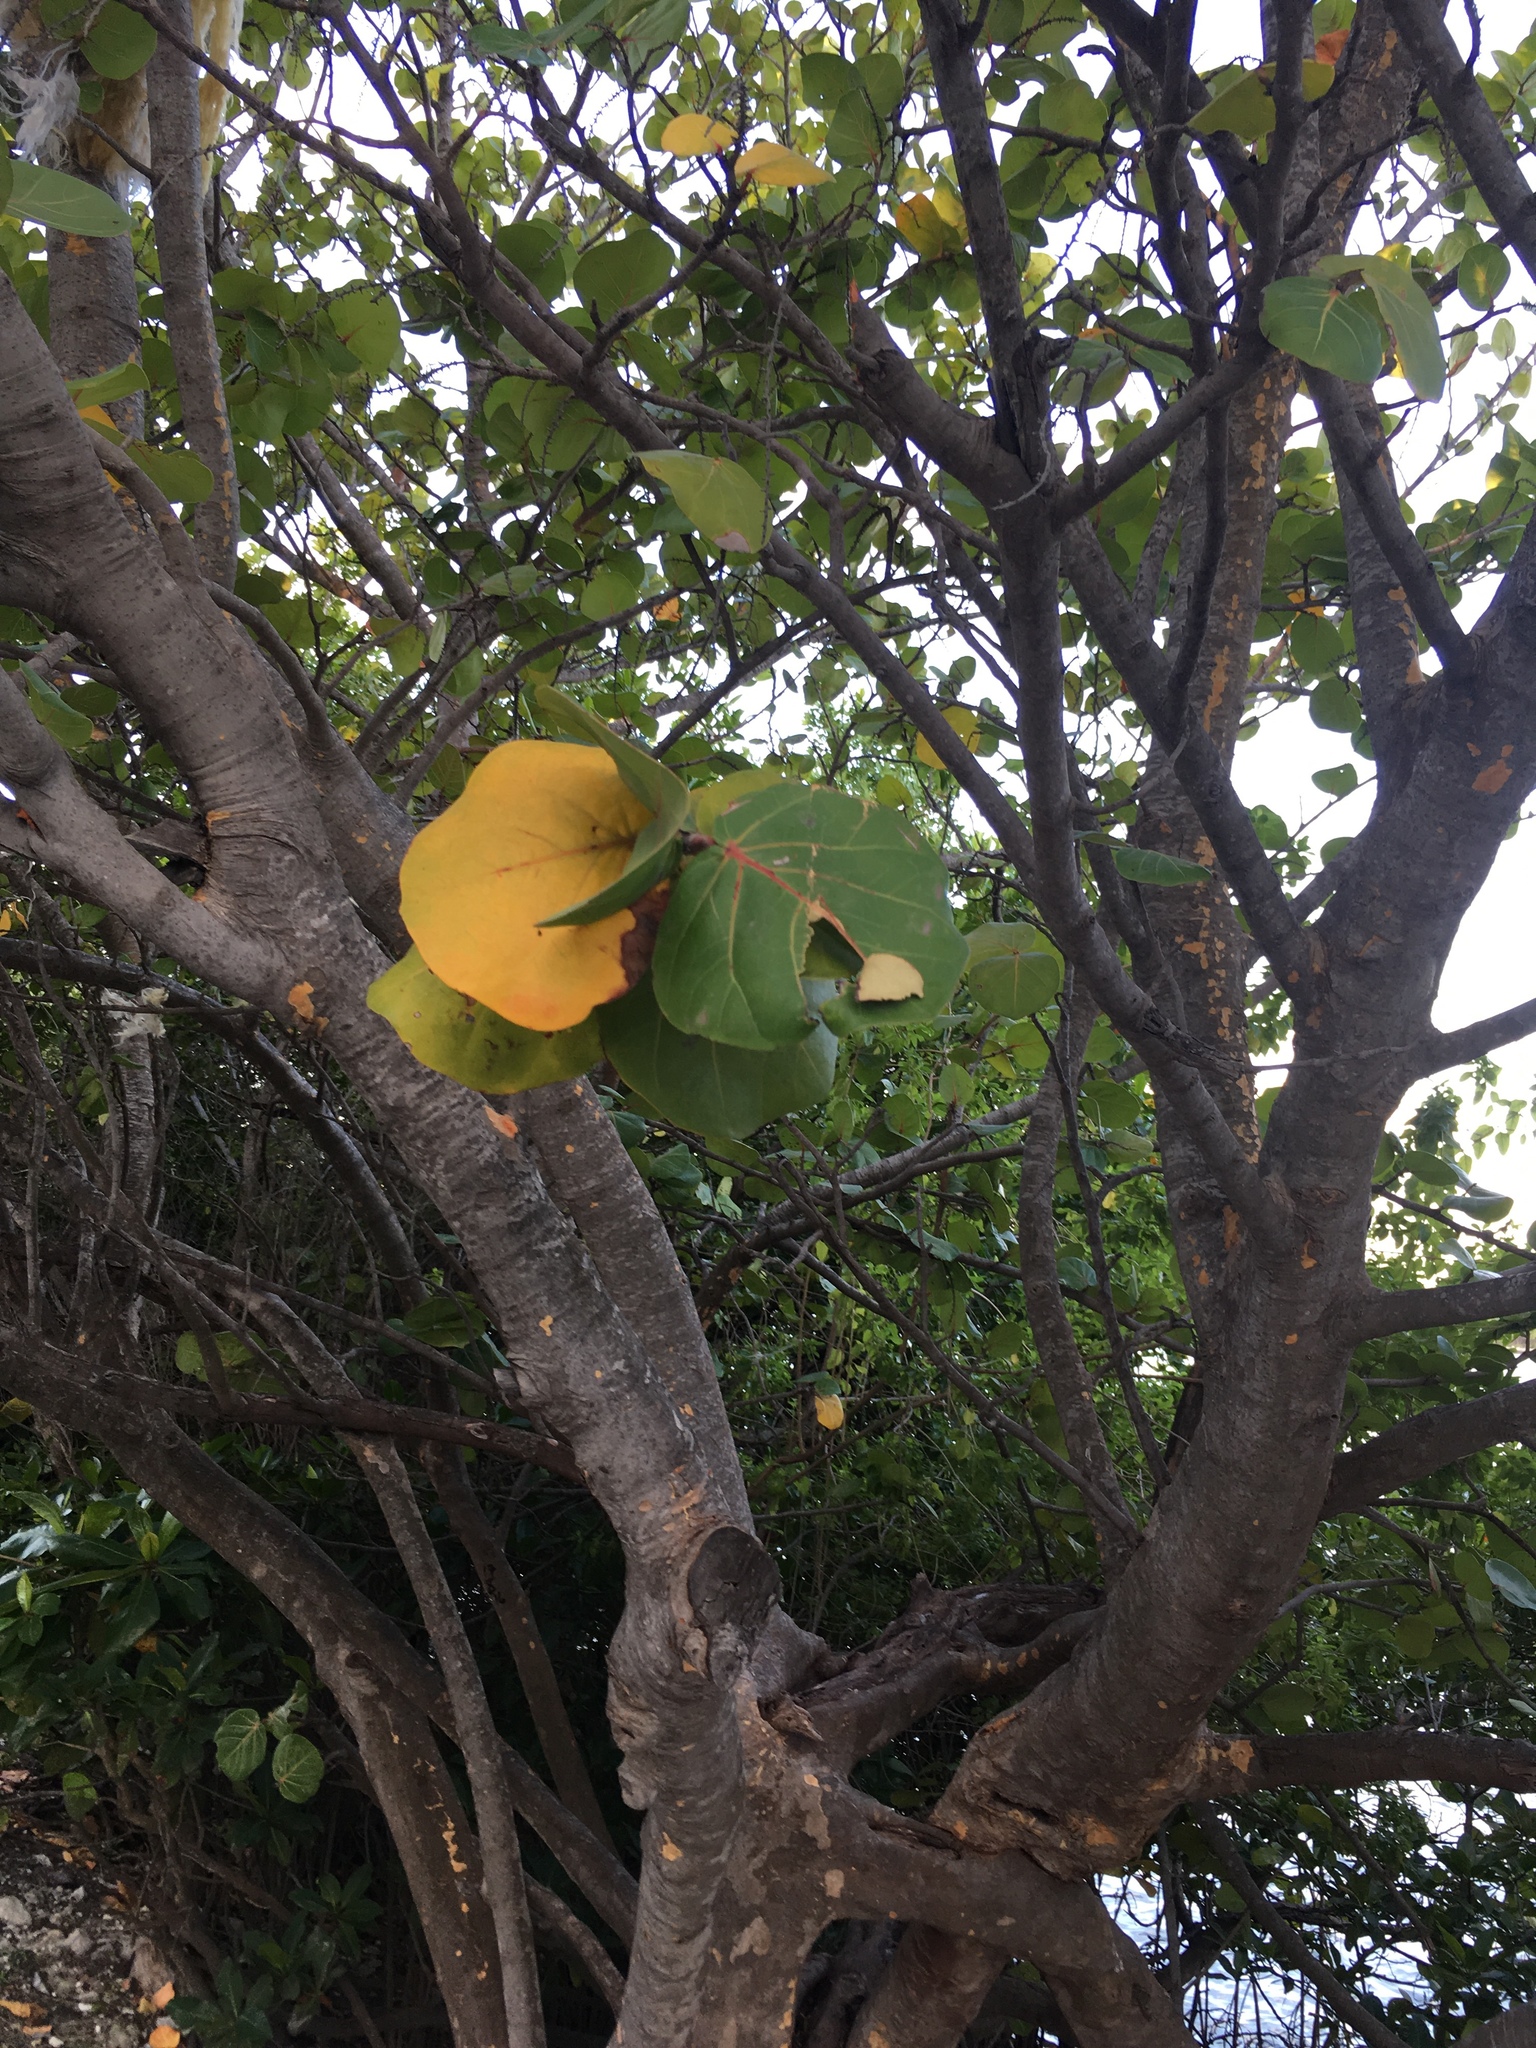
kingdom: Plantae
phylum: Tracheophyta
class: Magnoliopsida
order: Caryophyllales
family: Polygonaceae
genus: Coccoloba
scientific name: Coccoloba uvifera
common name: Seagrape
